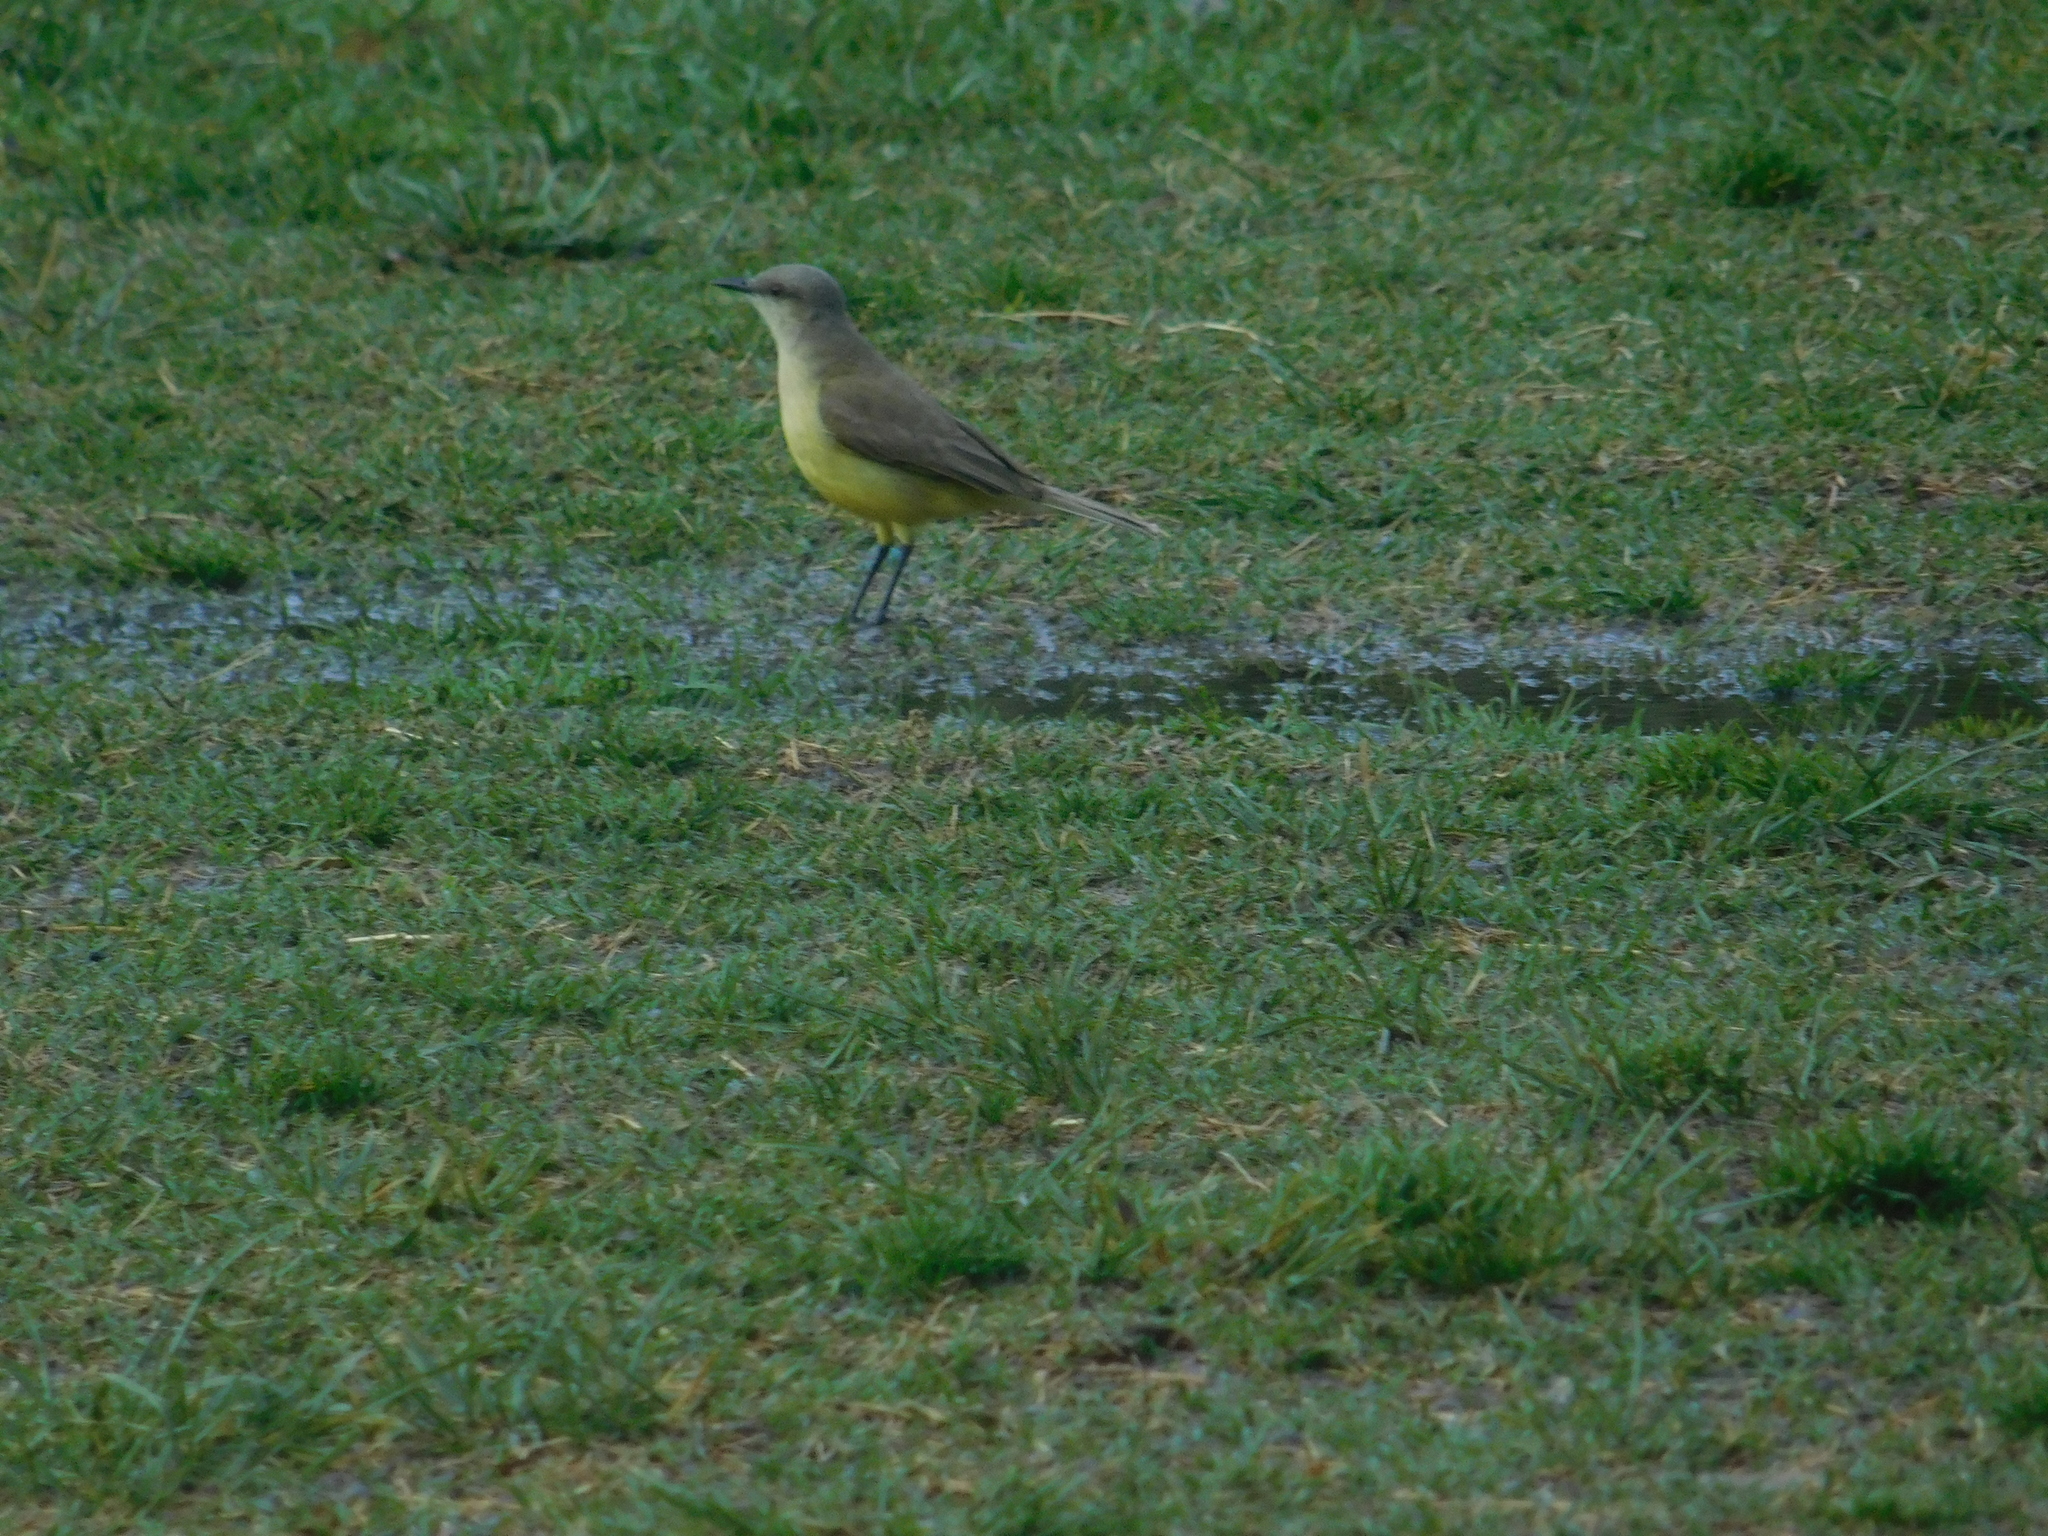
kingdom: Animalia
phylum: Chordata
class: Aves
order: Passeriformes
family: Tyrannidae
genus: Machetornis
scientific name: Machetornis rixosa
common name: Cattle tyrant
